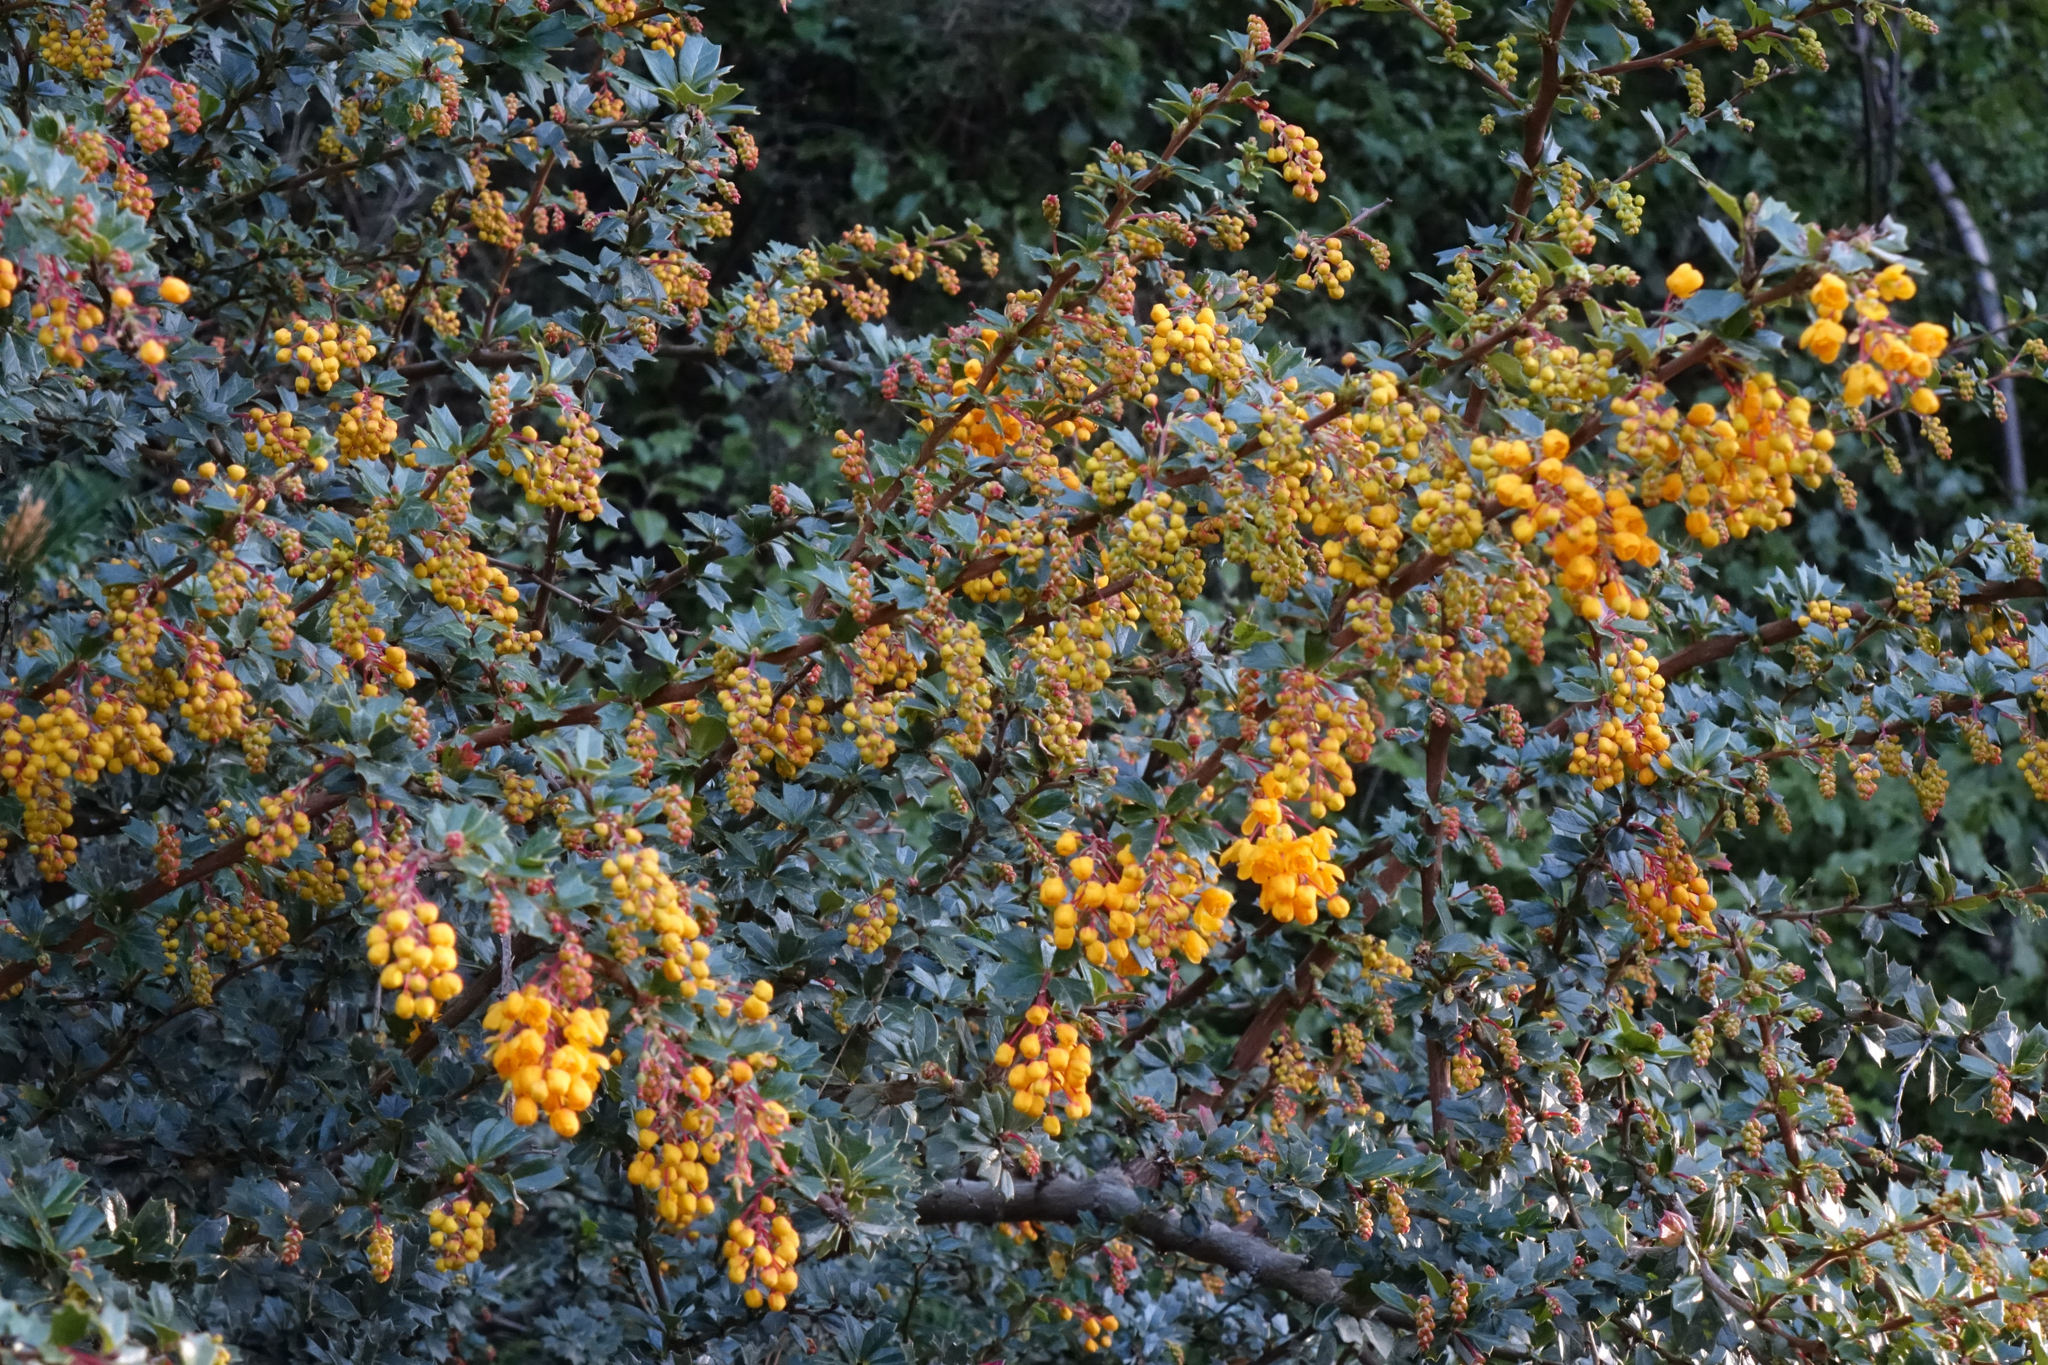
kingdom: Plantae
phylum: Tracheophyta
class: Magnoliopsida
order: Ranunculales
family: Berberidaceae
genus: Berberis
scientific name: Berberis darwinii
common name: Darwin's barberry
